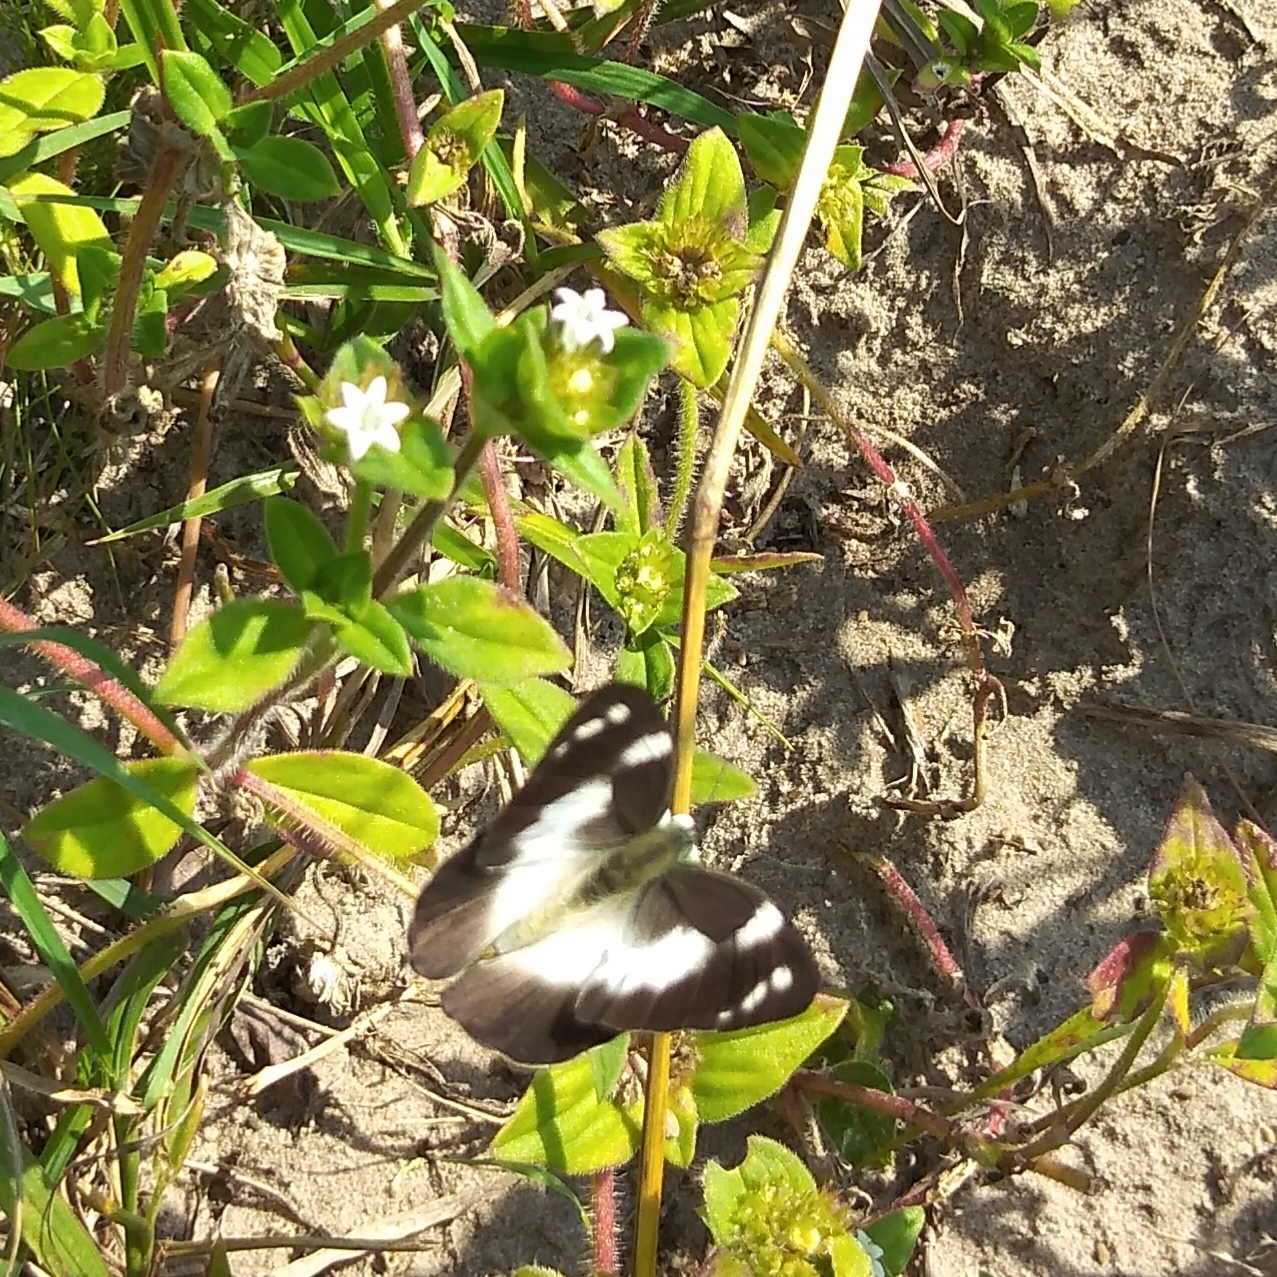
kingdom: Animalia
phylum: Arthropoda
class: Insecta
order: Lepidoptera
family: Pieridae
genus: Glutophrissa
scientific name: Glutophrissa epaphia
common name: African albatross
